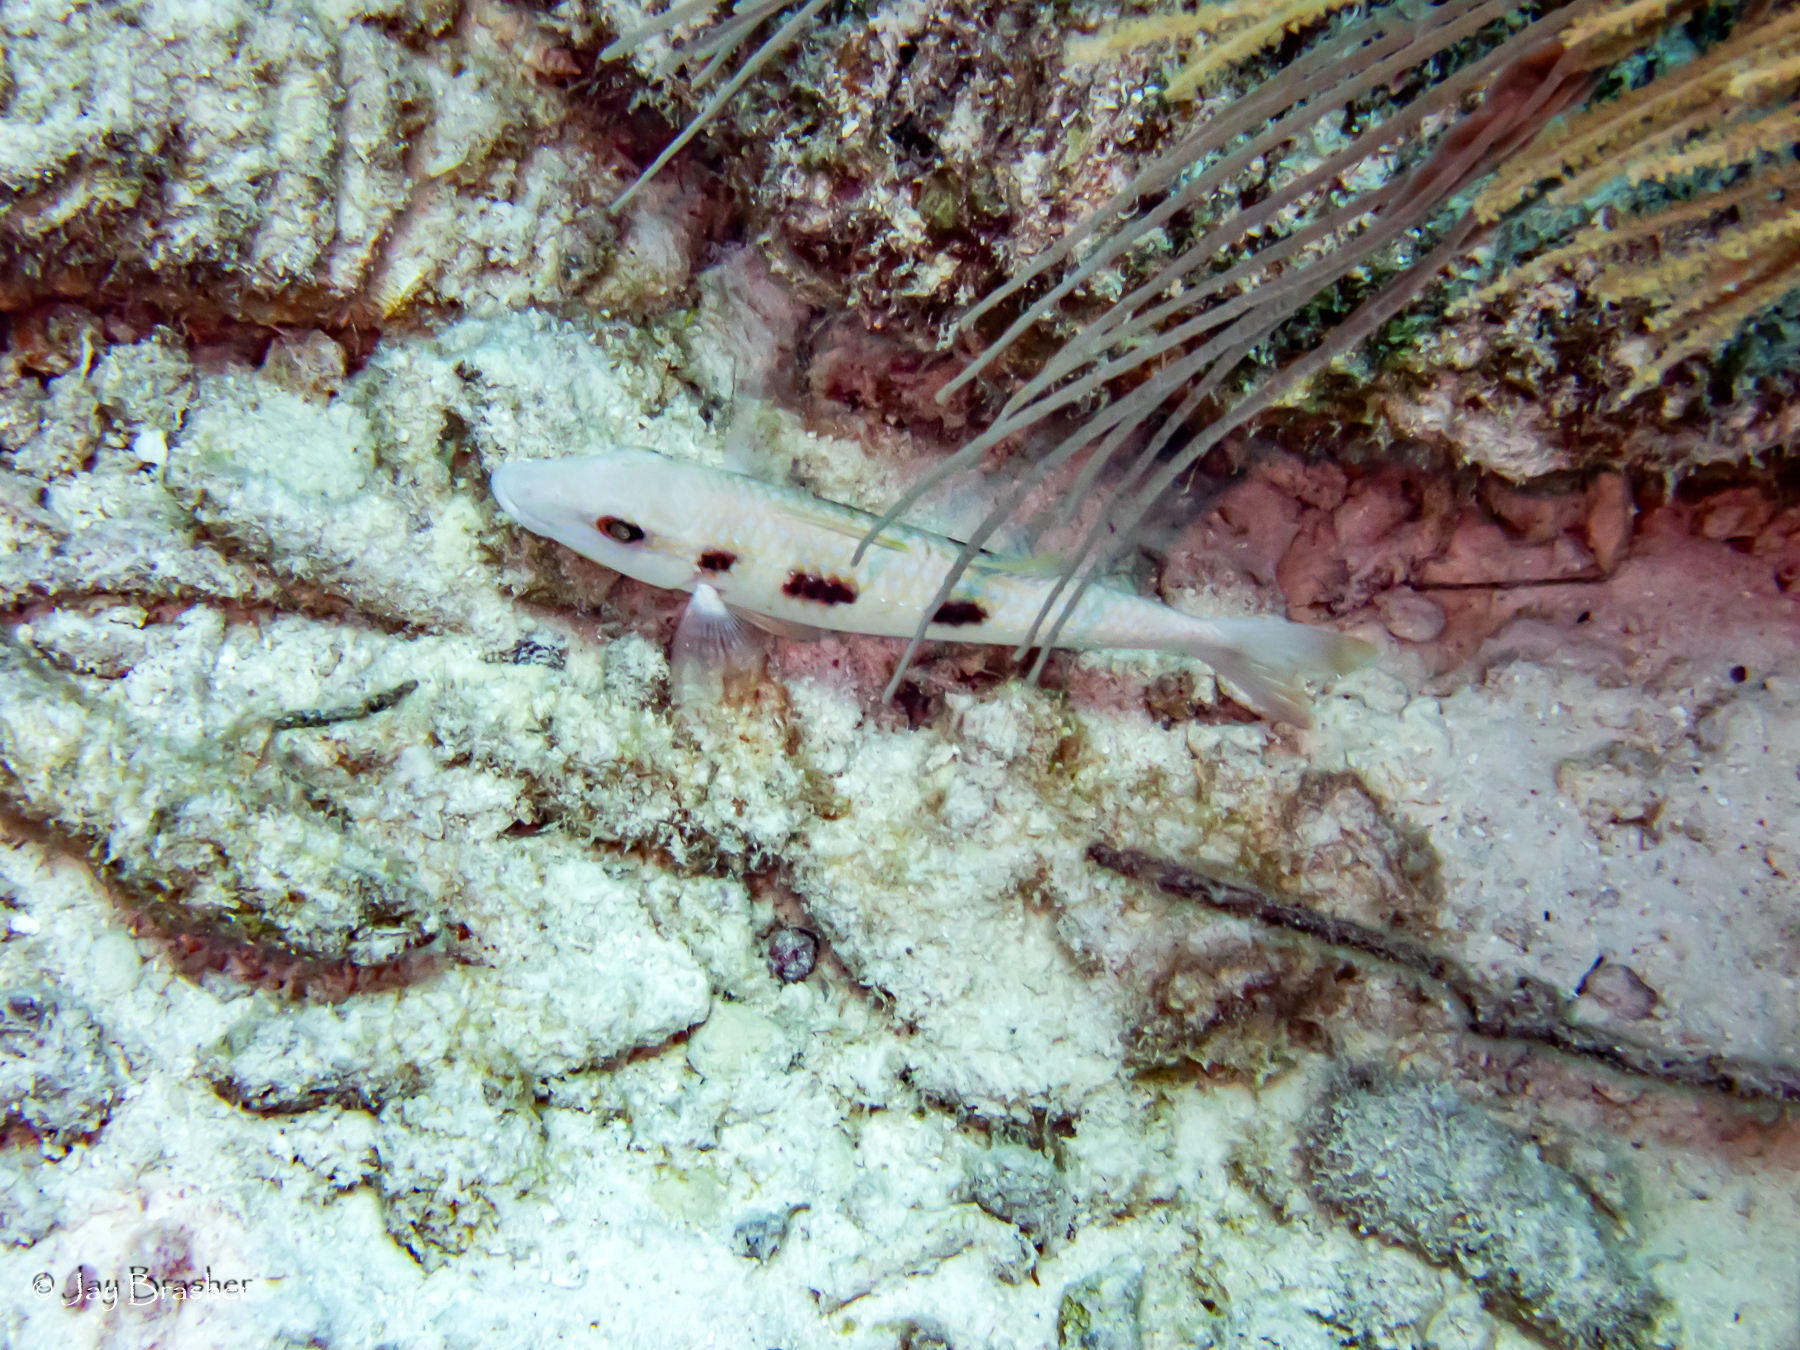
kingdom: Animalia
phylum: Chordata
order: Perciformes
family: Mullidae
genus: Pseudupeneus
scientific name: Pseudupeneus maculatus
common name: Spotted goatfish
